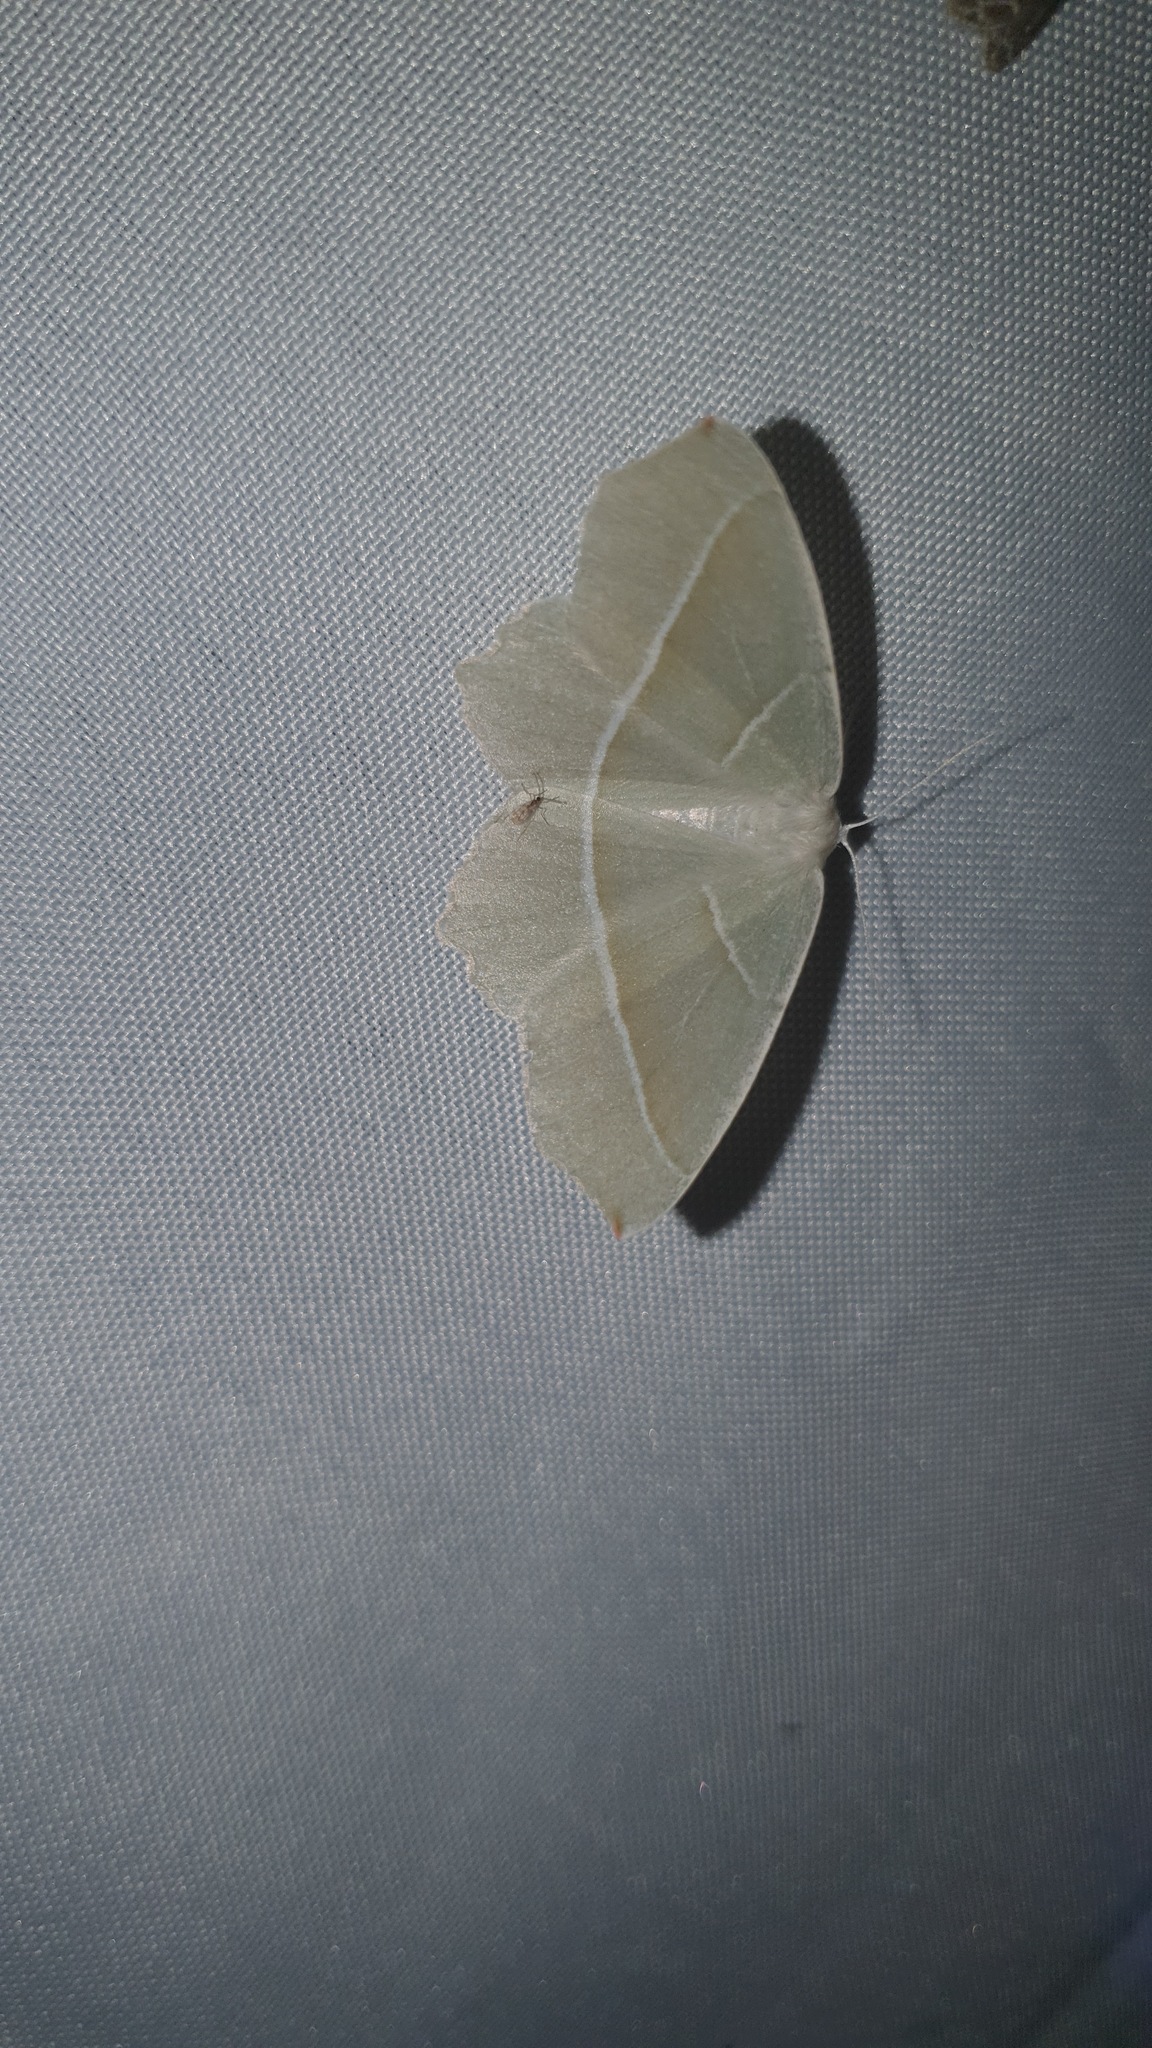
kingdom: Animalia
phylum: Arthropoda
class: Insecta
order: Lepidoptera
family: Geometridae
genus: Campaea
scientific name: Campaea margaritaria
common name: Light emerald
